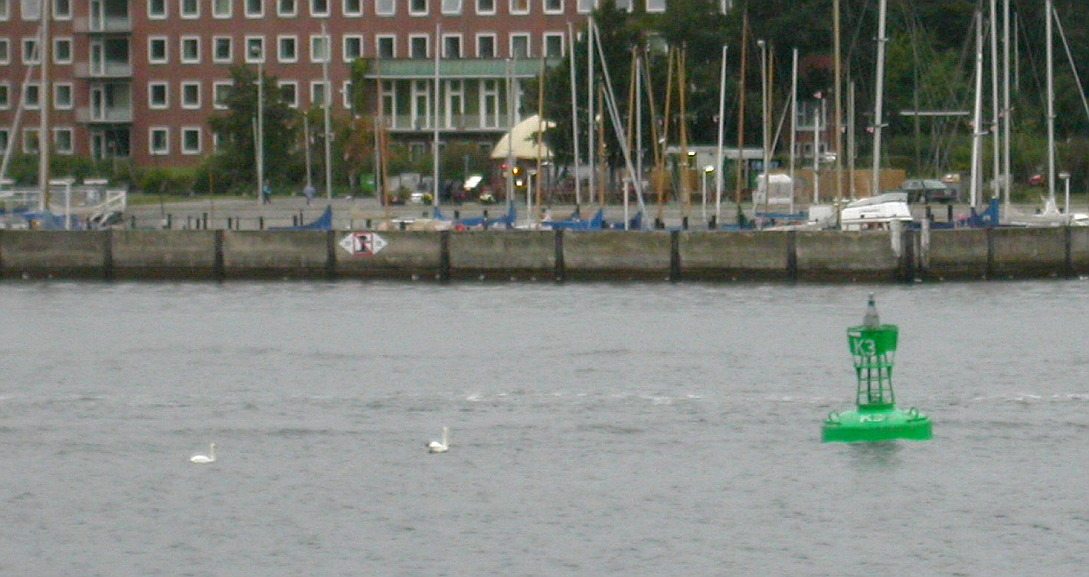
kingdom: Animalia
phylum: Chordata
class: Aves
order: Anseriformes
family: Anatidae
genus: Cygnus
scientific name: Cygnus olor
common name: Mute swan
